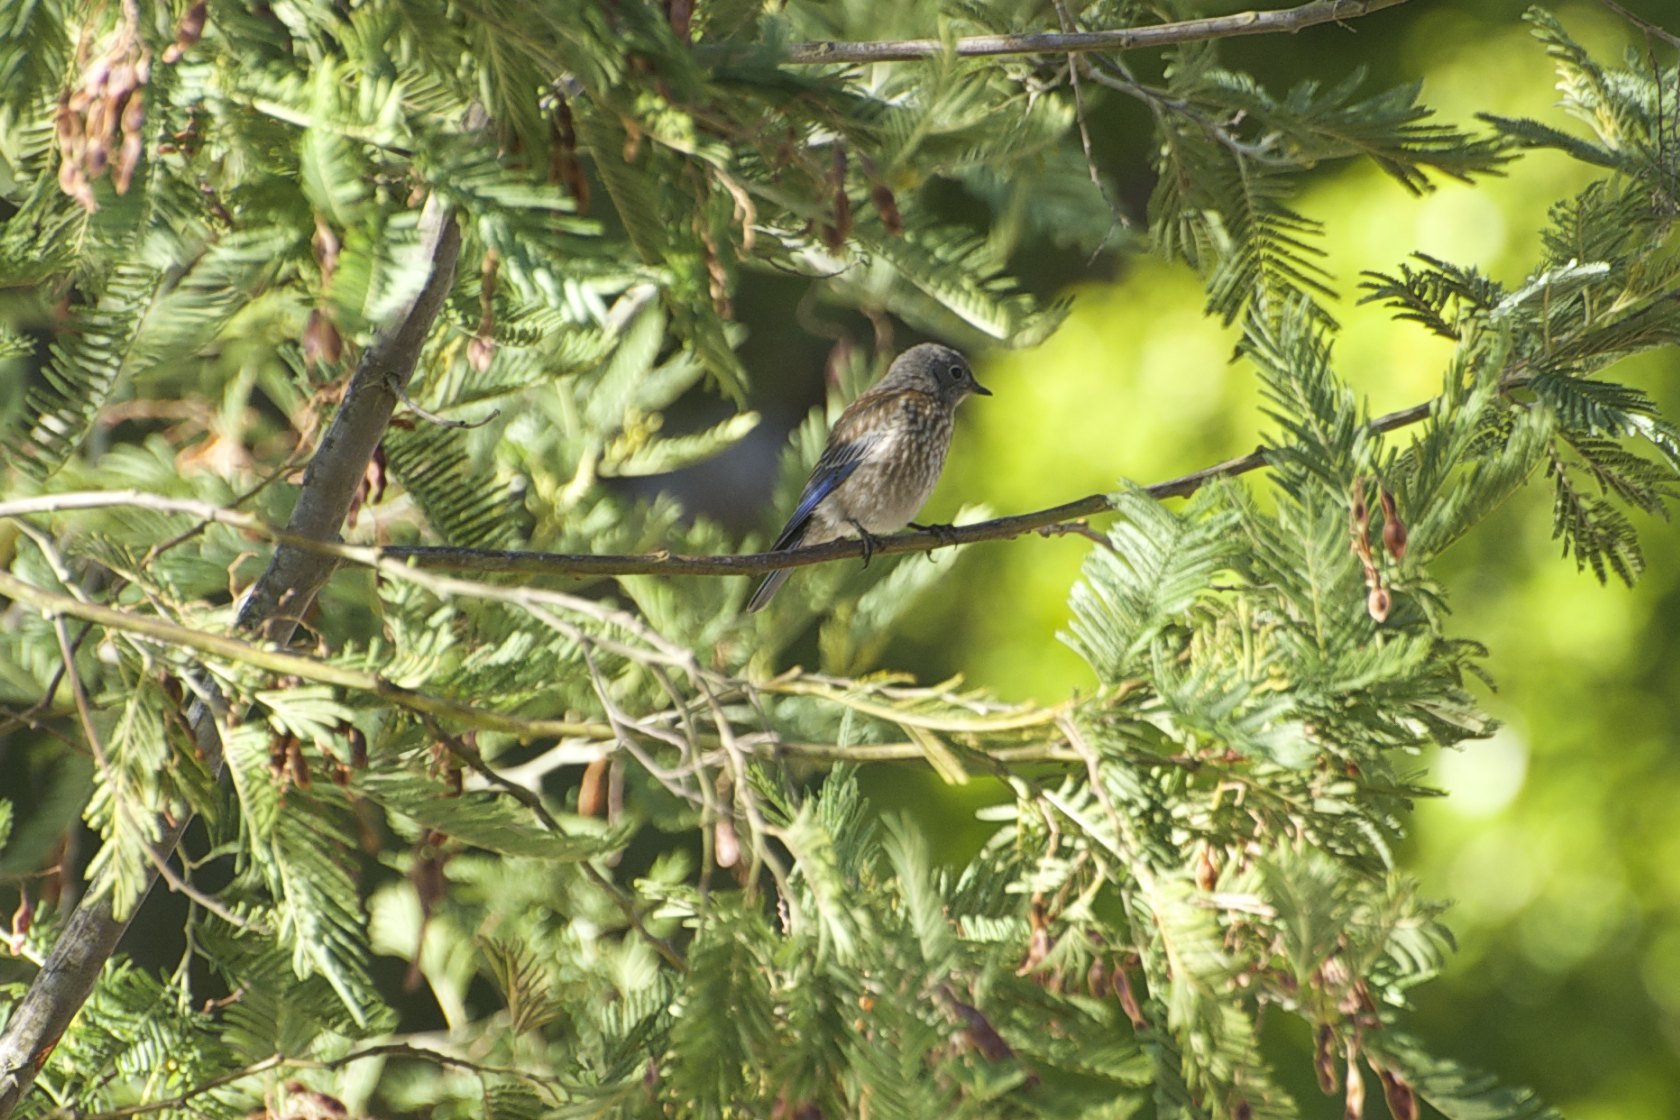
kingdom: Animalia
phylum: Chordata
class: Aves
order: Passeriformes
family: Turdidae
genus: Sialia
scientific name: Sialia mexicana
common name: Western bluebird
